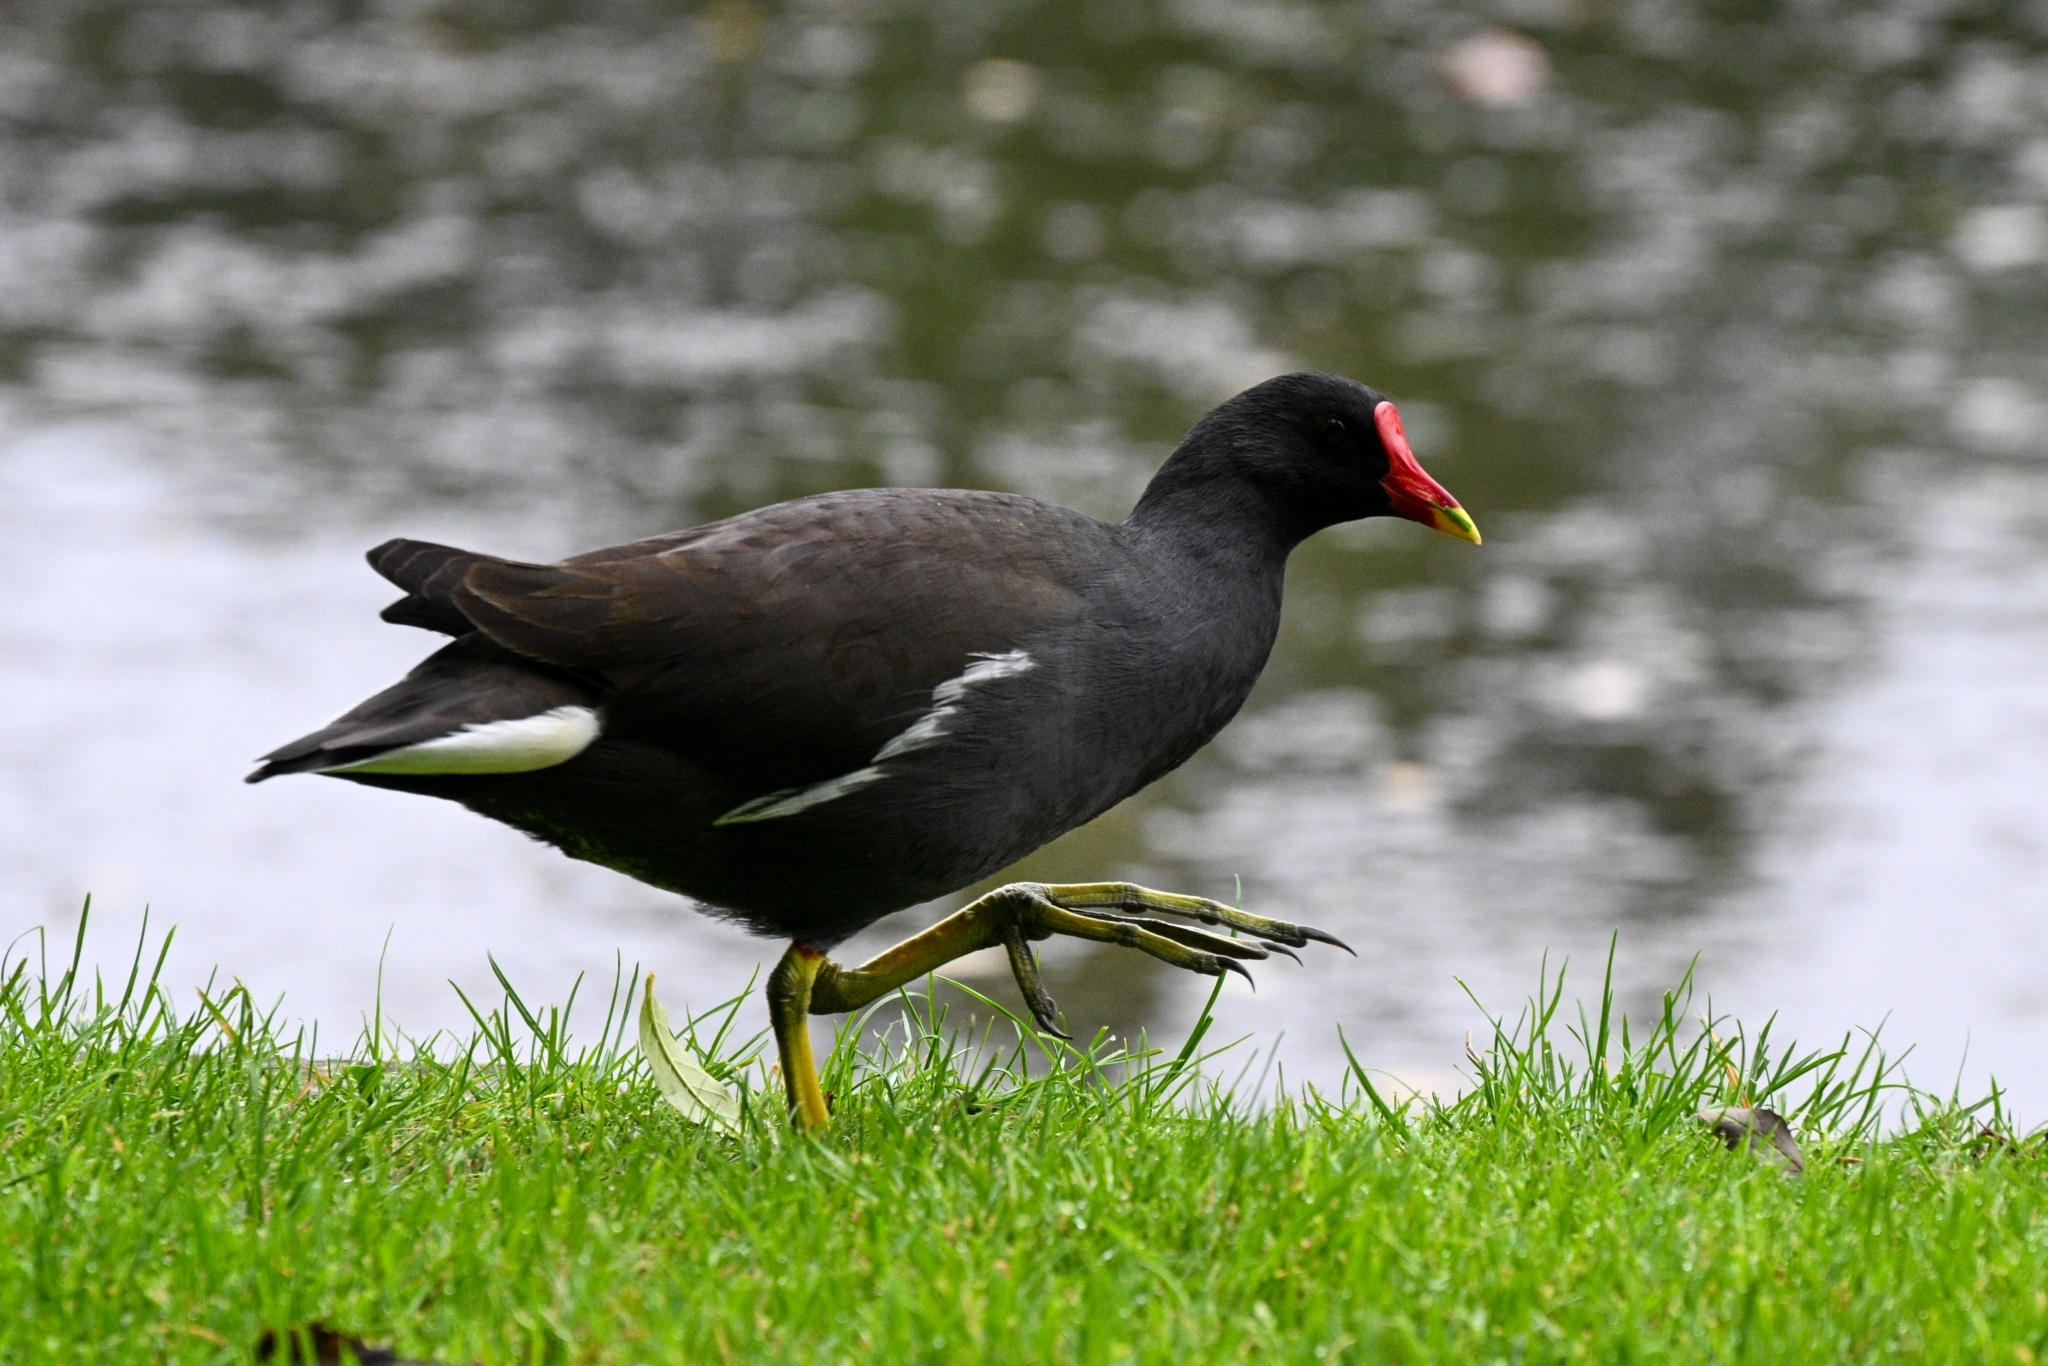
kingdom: Animalia
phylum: Chordata
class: Aves
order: Gruiformes
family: Rallidae
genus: Gallinula
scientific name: Gallinula chloropus
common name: Common moorhen
